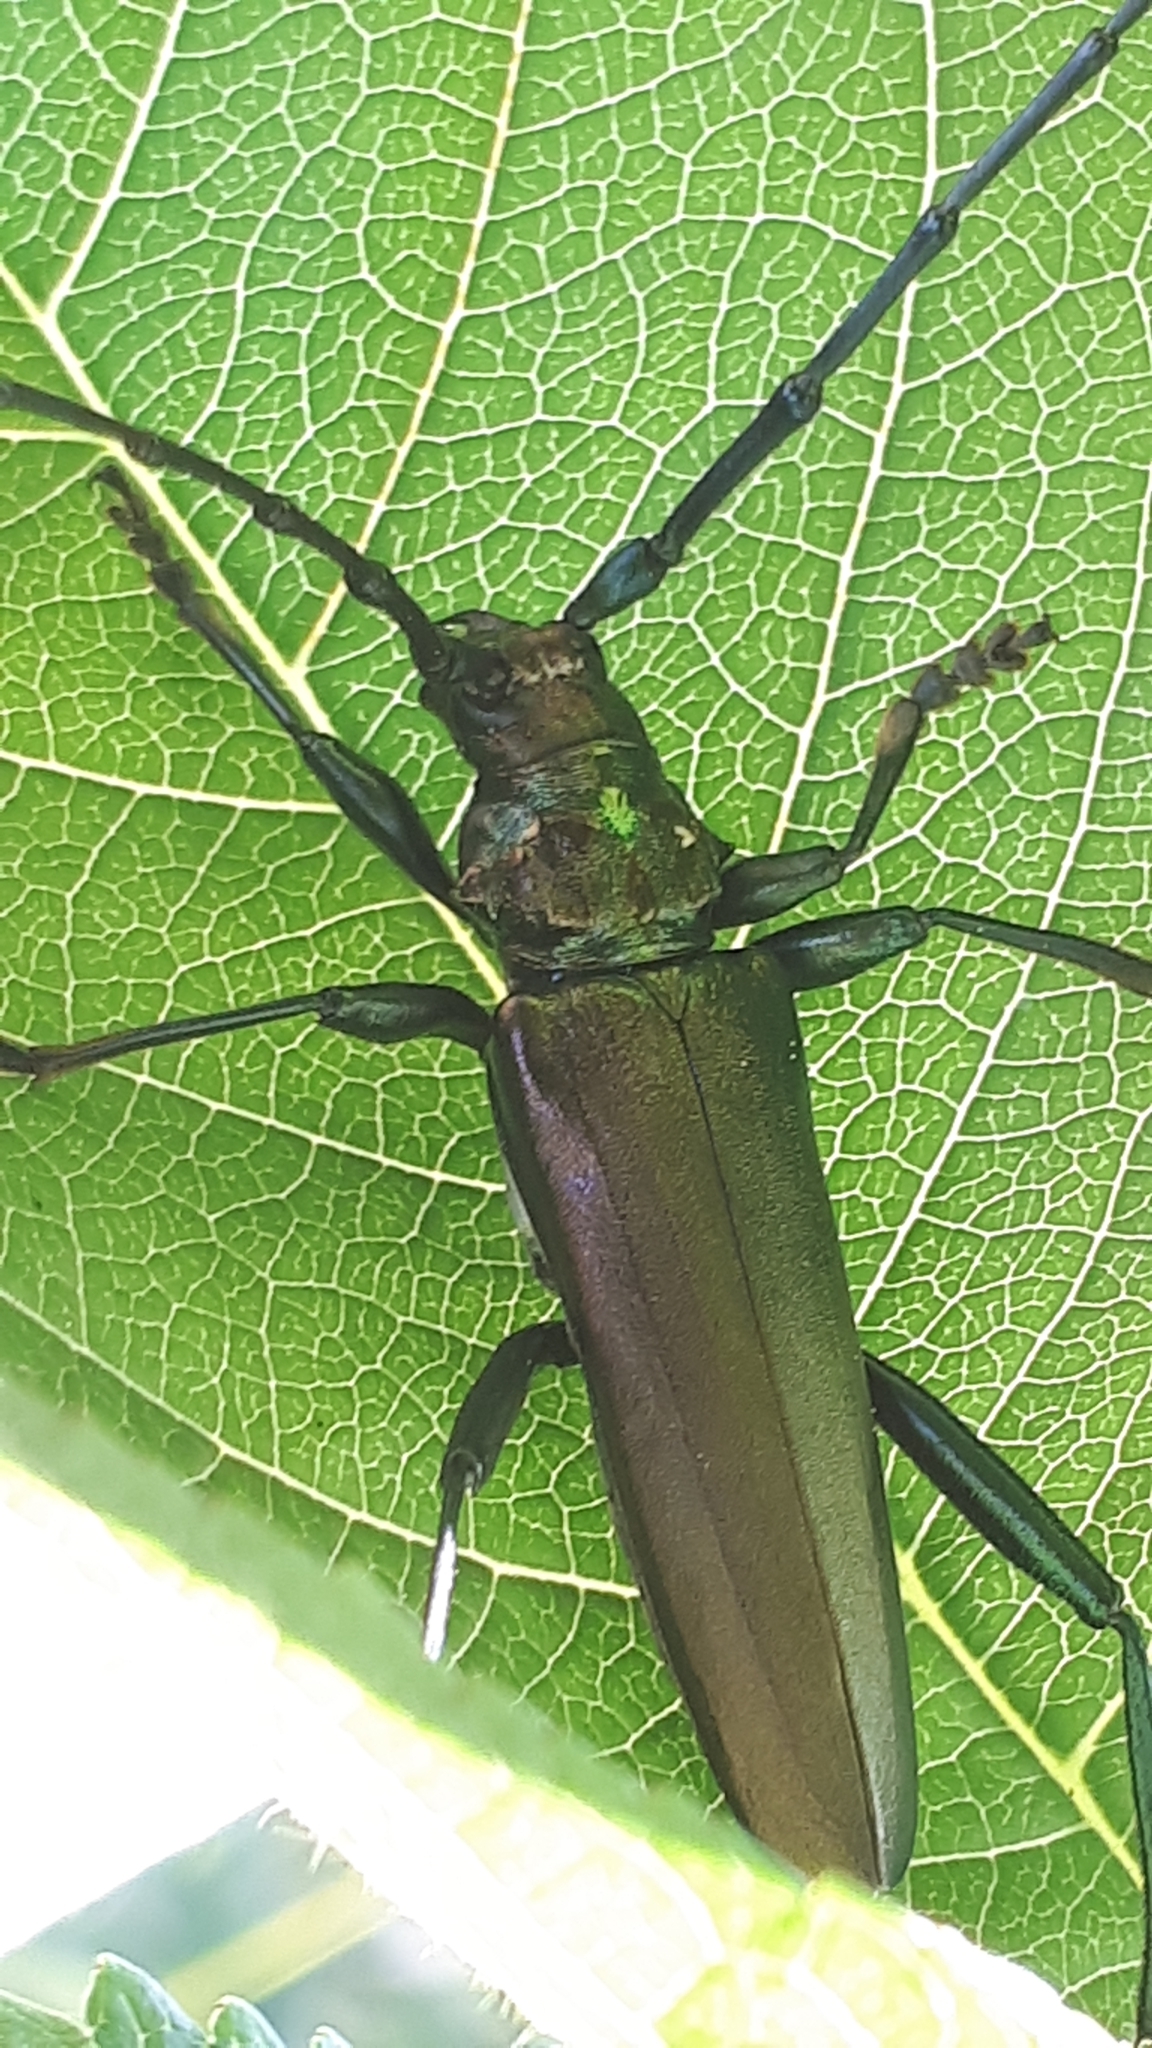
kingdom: Animalia
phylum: Arthropoda
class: Insecta
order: Coleoptera
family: Cerambycidae
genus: Aromia
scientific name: Aromia moschata
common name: Musk beetle
